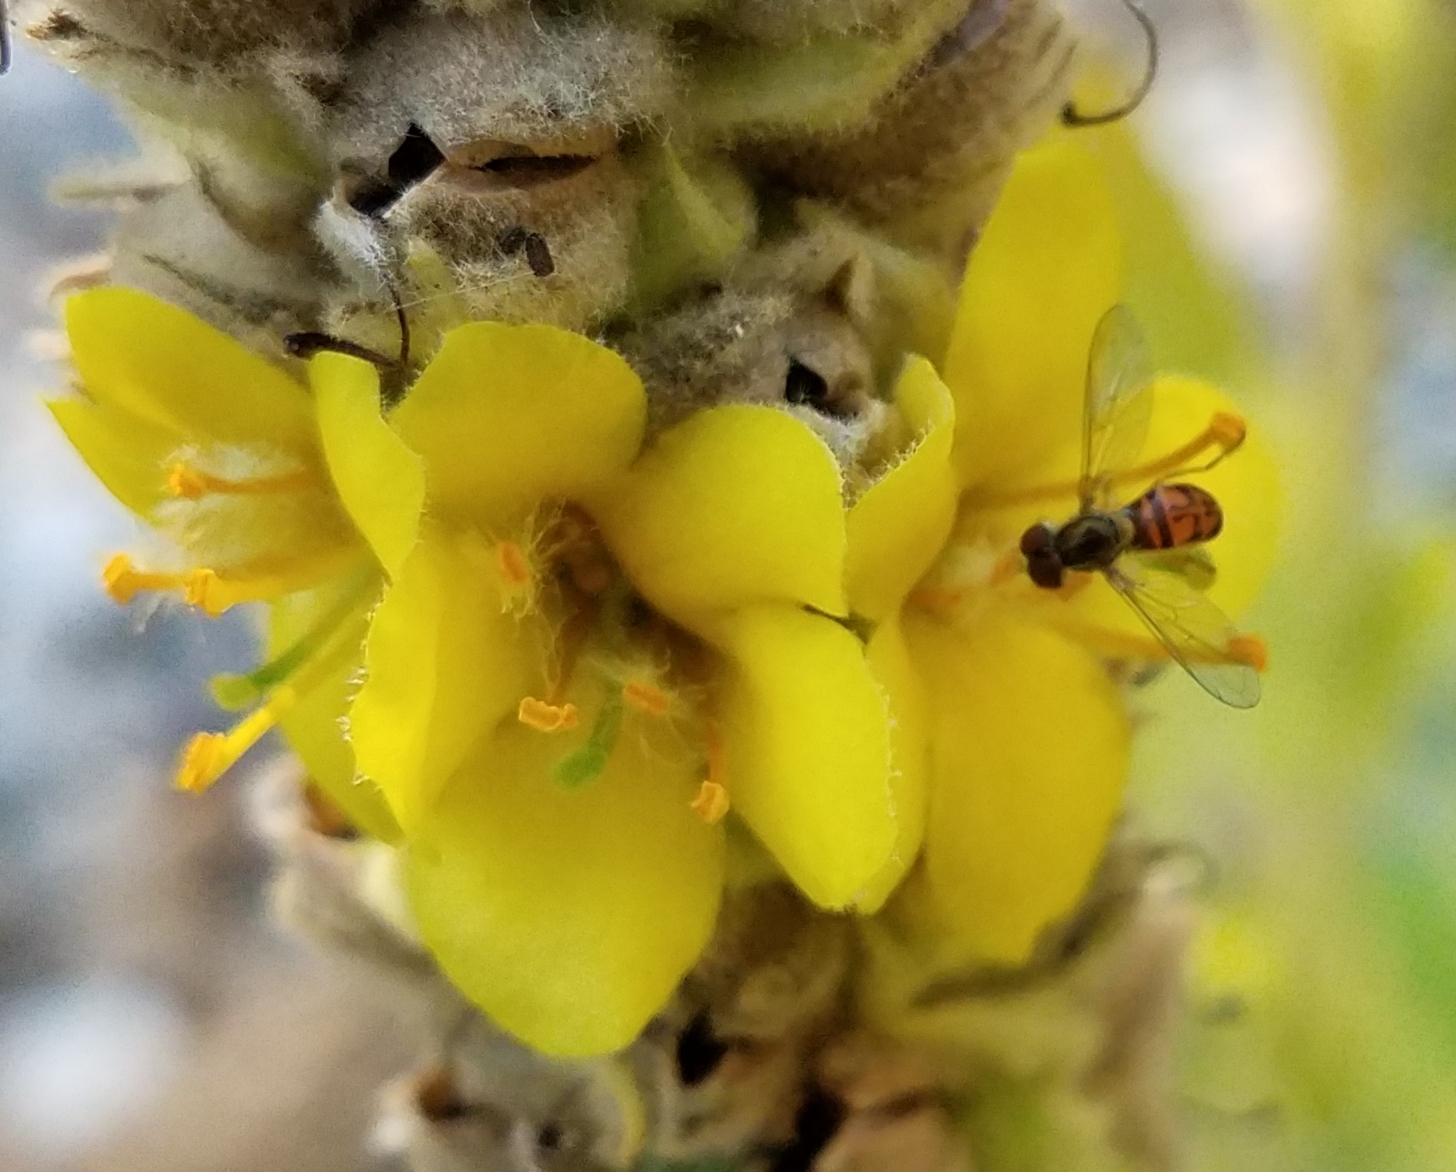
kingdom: Animalia
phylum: Arthropoda
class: Insecta
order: Diptera
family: Syrphidae
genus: Toxomerus
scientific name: Toxomerus marginatus
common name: Syrphid fly
